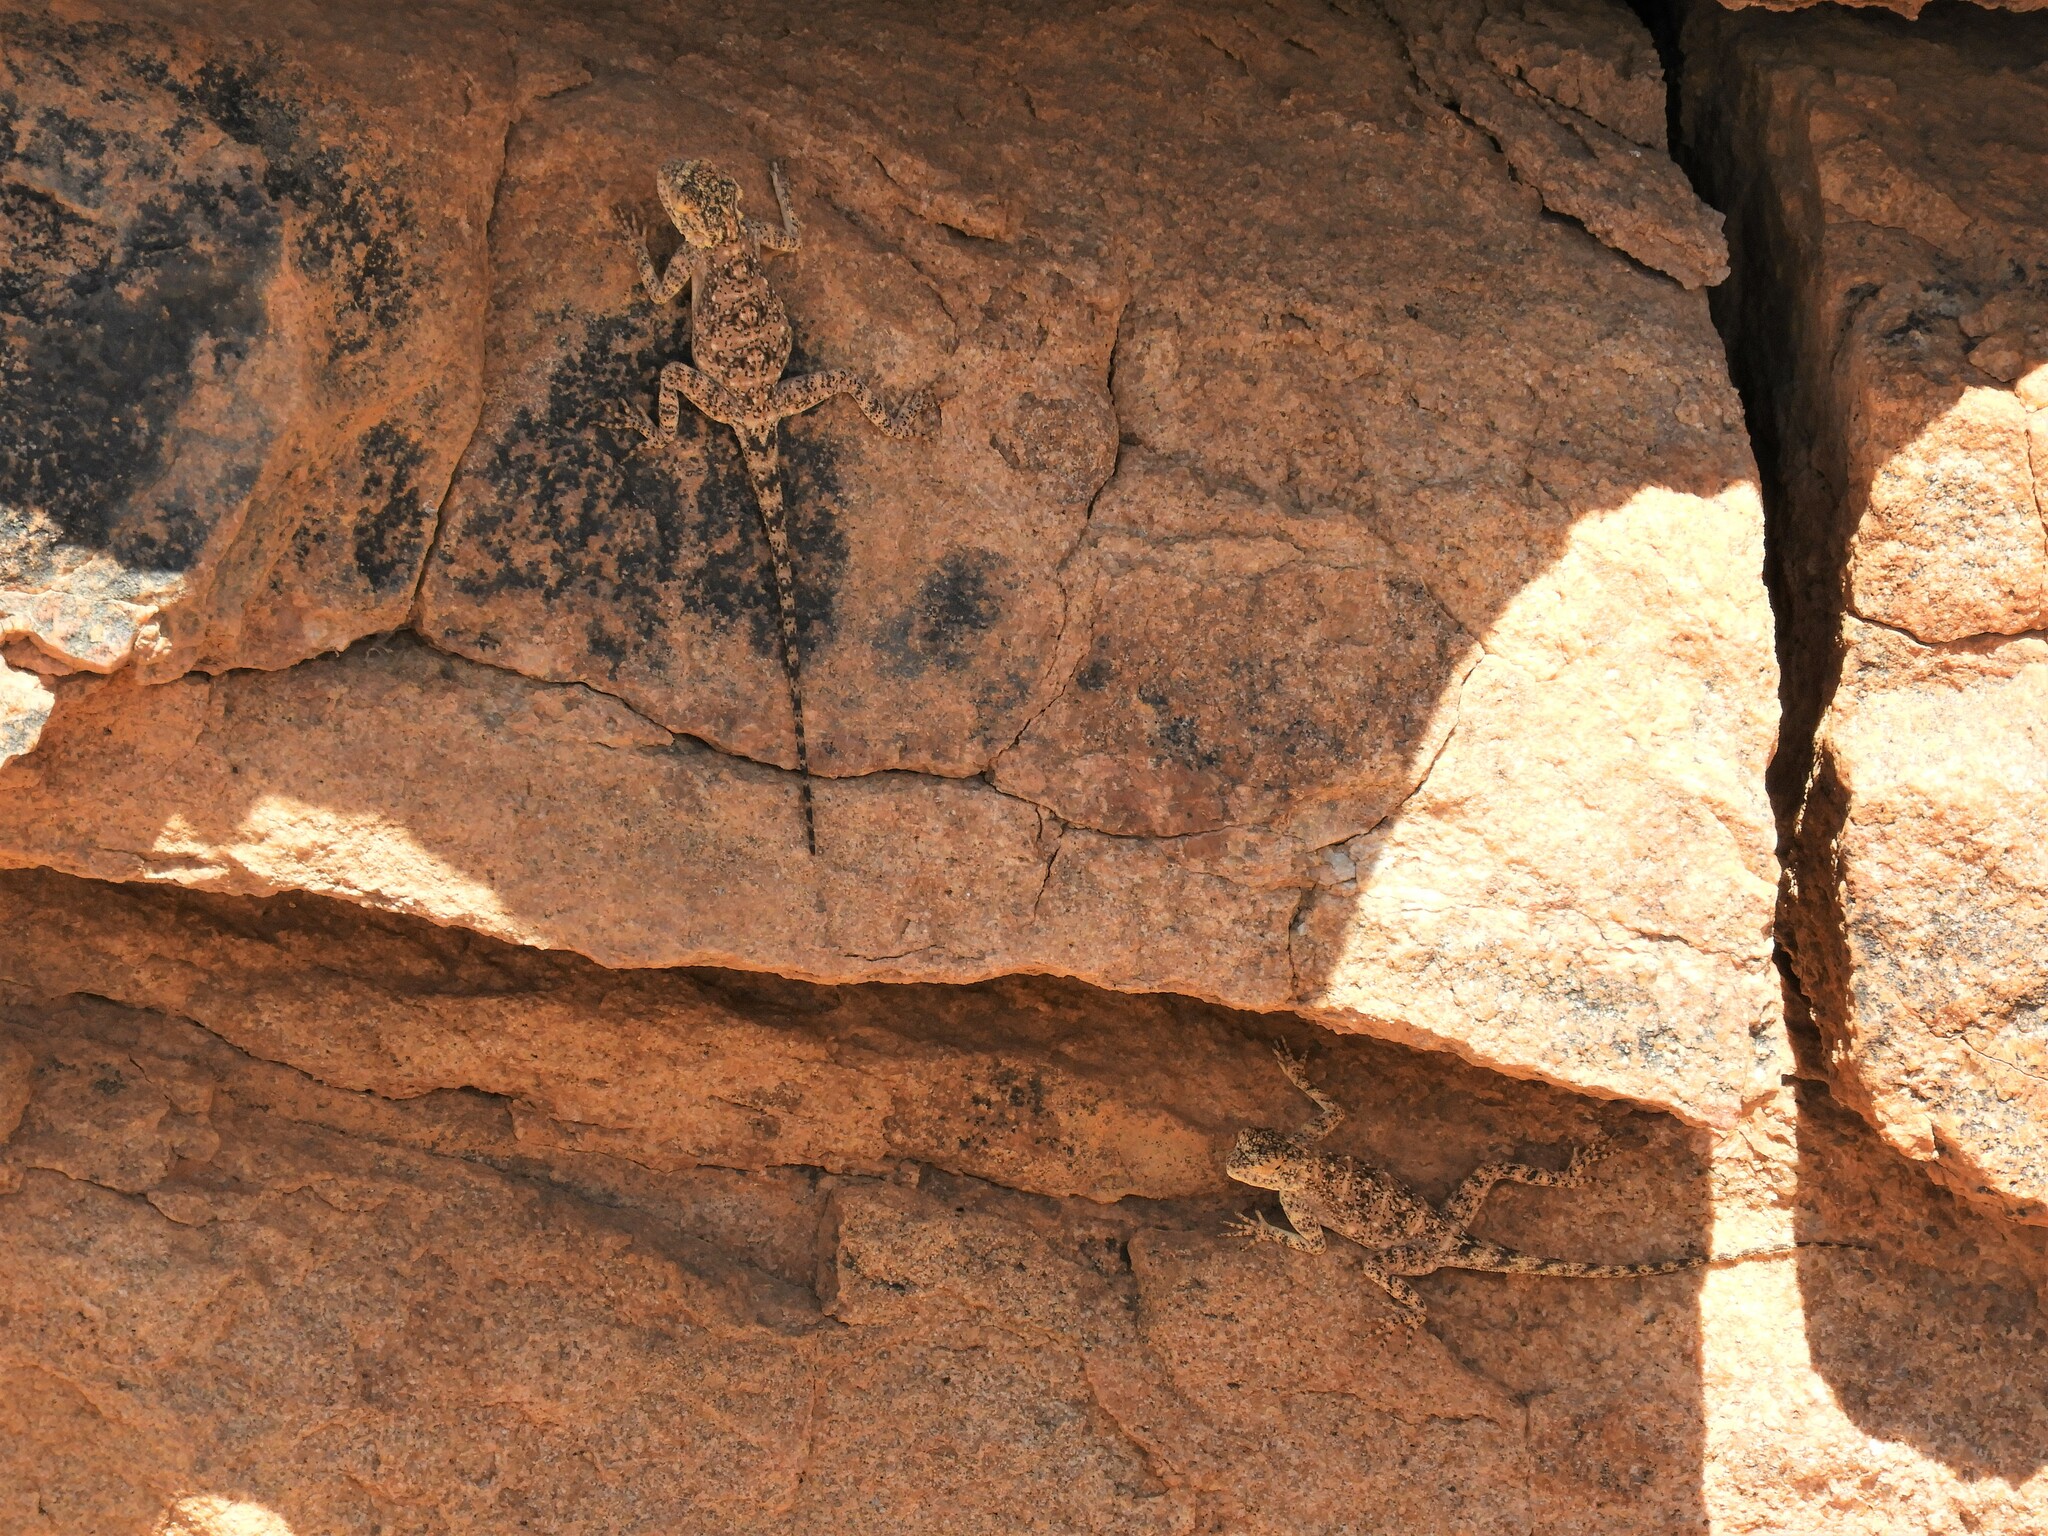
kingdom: Animalia
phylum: Chordata
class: Squamata
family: Agamidae
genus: Agama
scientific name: Agama atra
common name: Southern african rock agama
